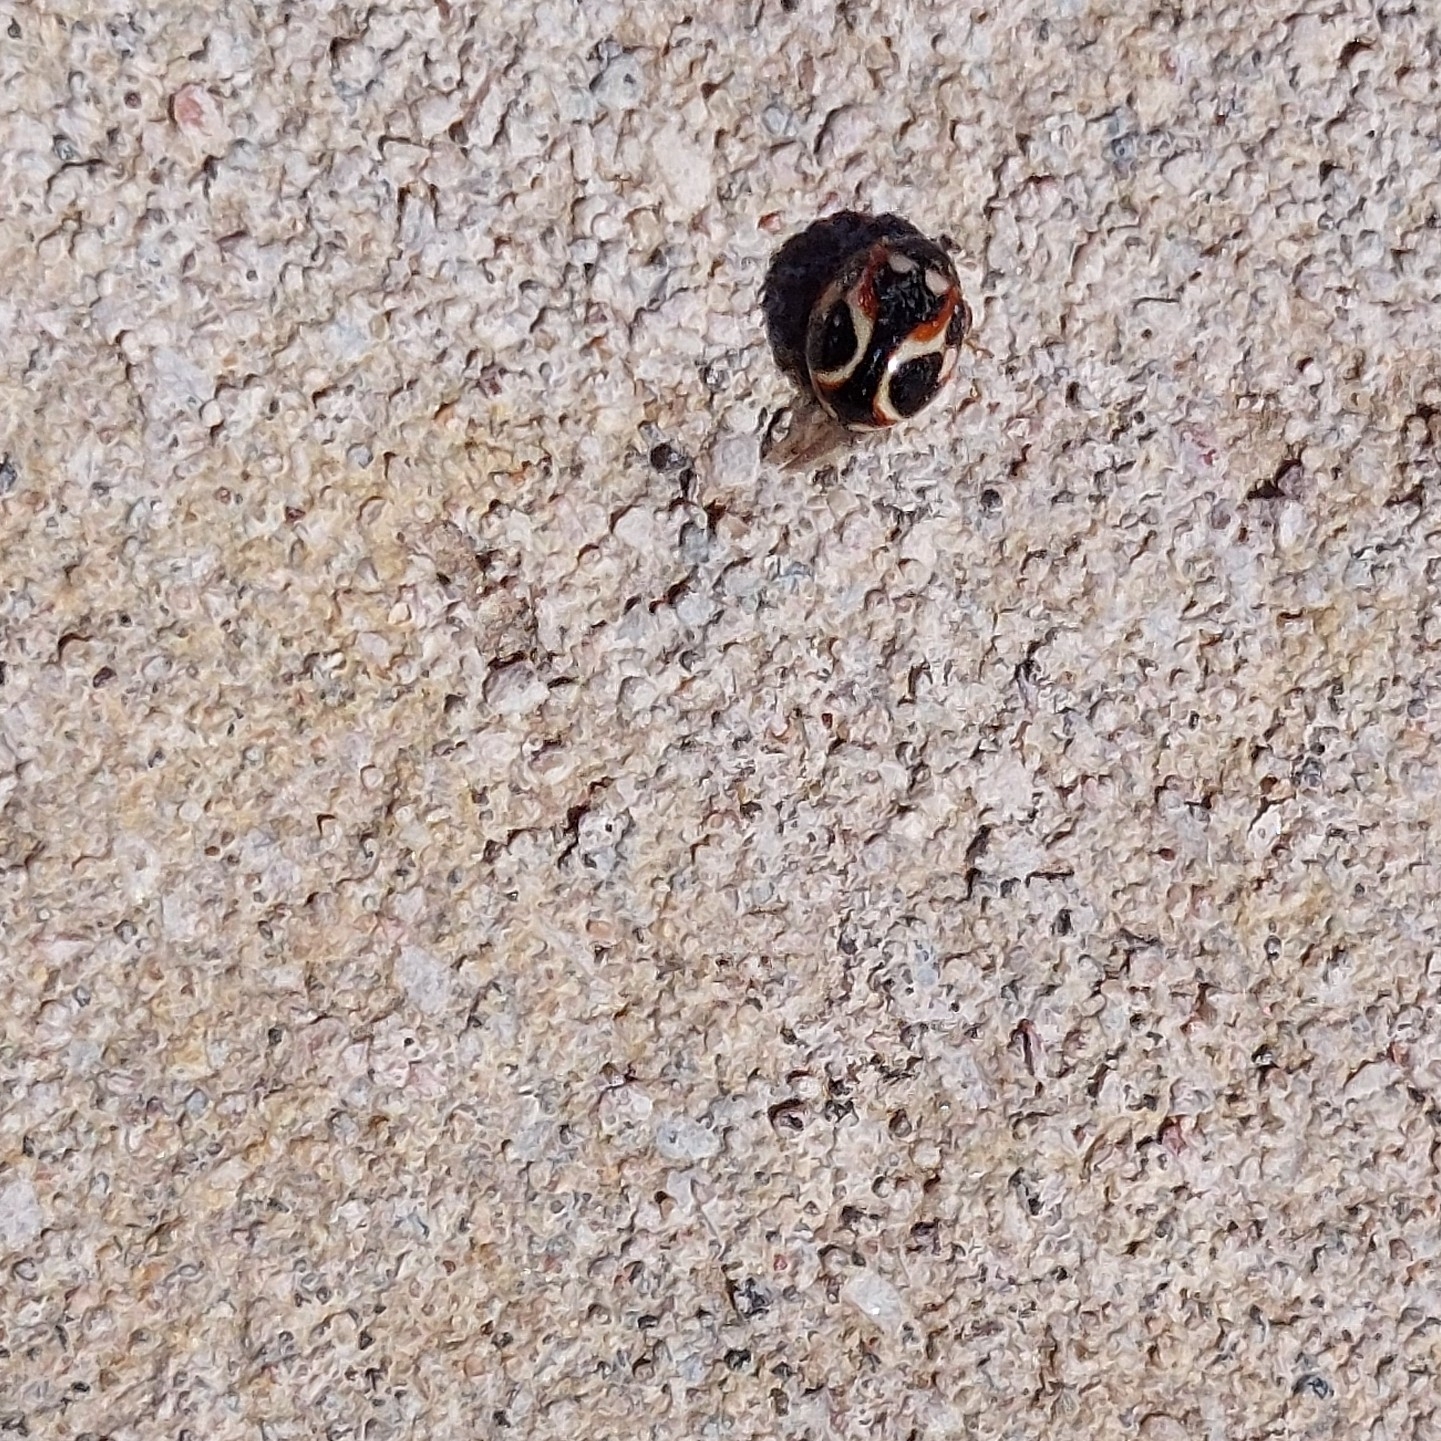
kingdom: Animalia
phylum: Arthropoda
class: Insecta
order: Coleoptera
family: Coccinellidae
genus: Cycloneda
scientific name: Cycloneda ancoralis
